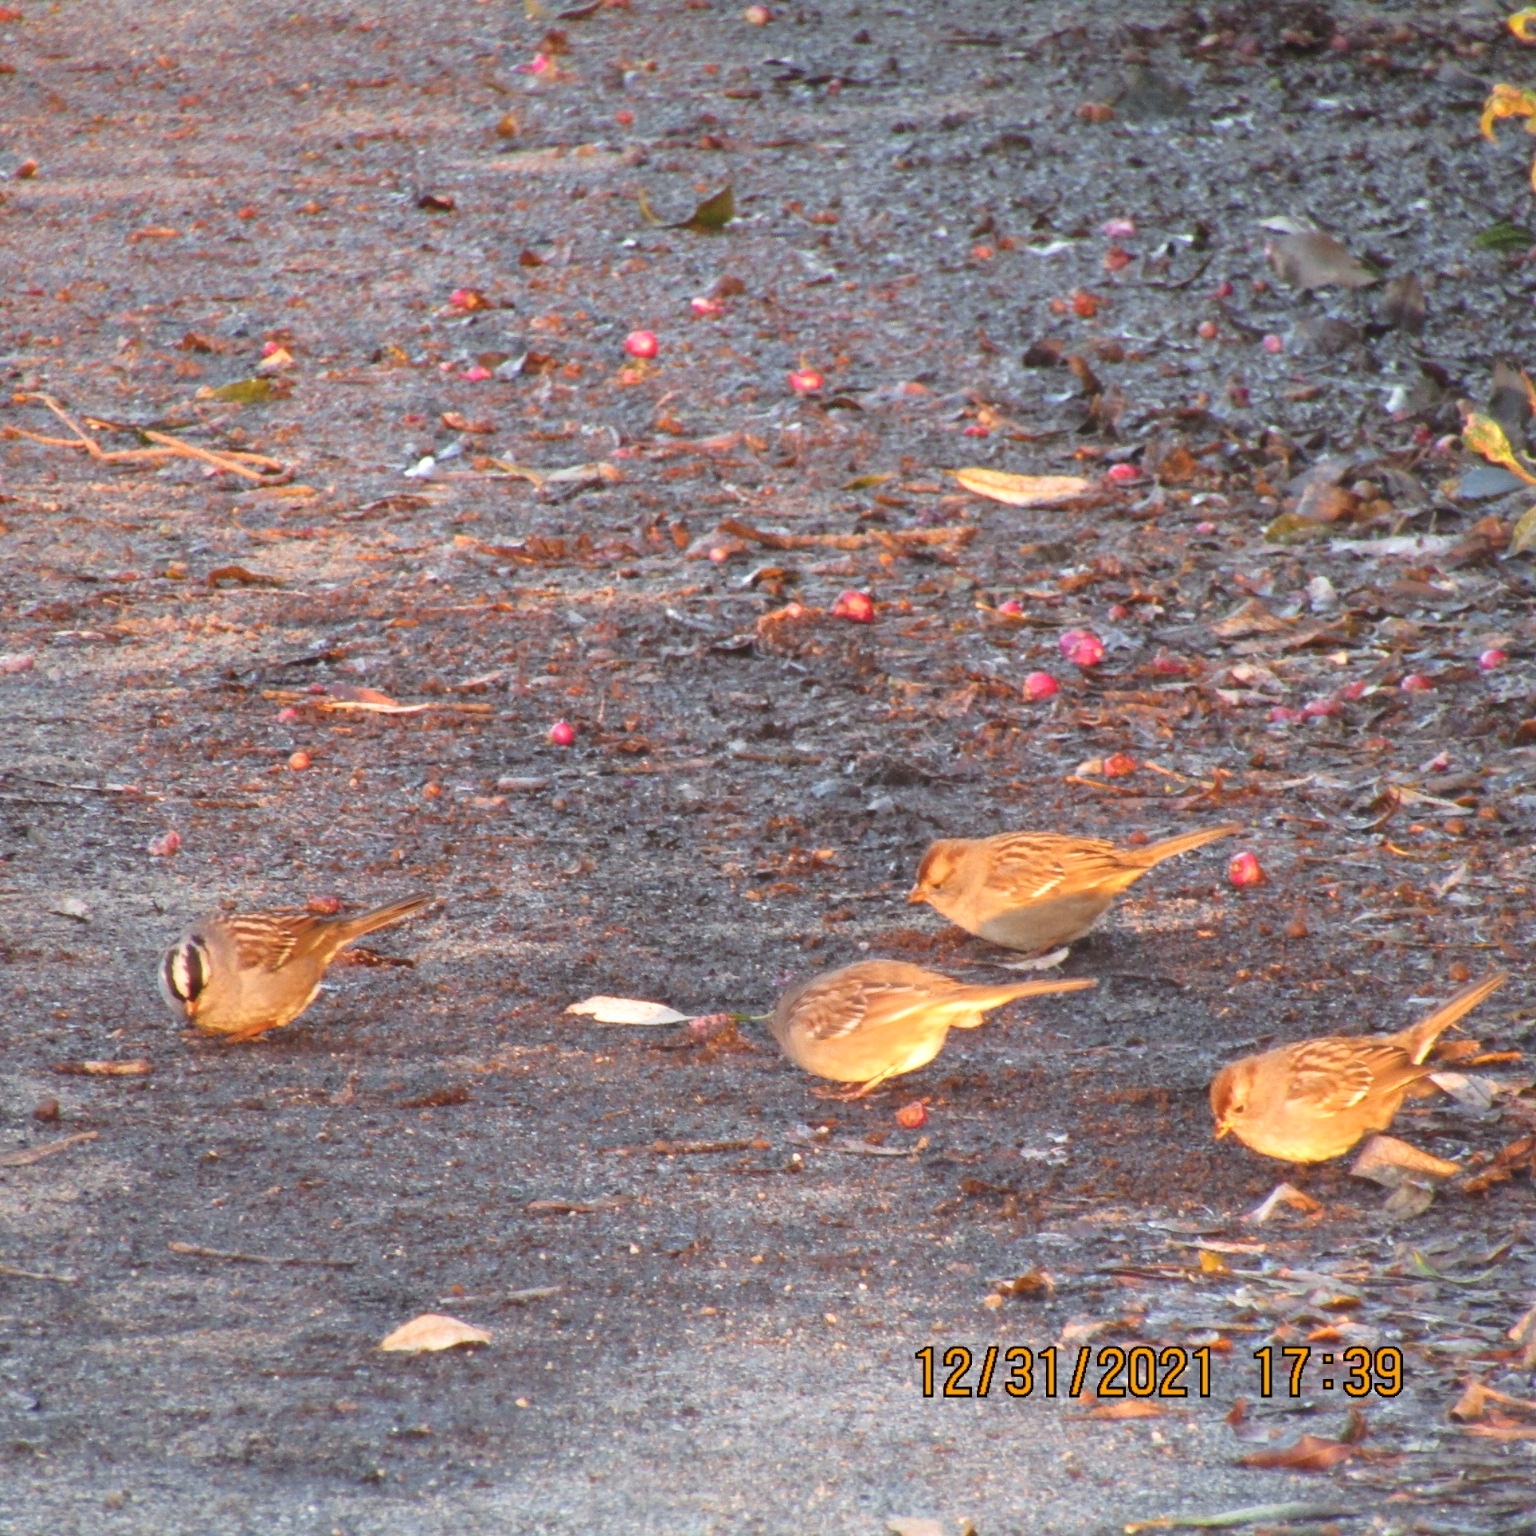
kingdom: Animalia
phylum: Chordata
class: Aves
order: Passeriformes
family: Passerellidae
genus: Zonotrichia
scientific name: Zonotrichia leucophrys
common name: White-crowned sparrow
